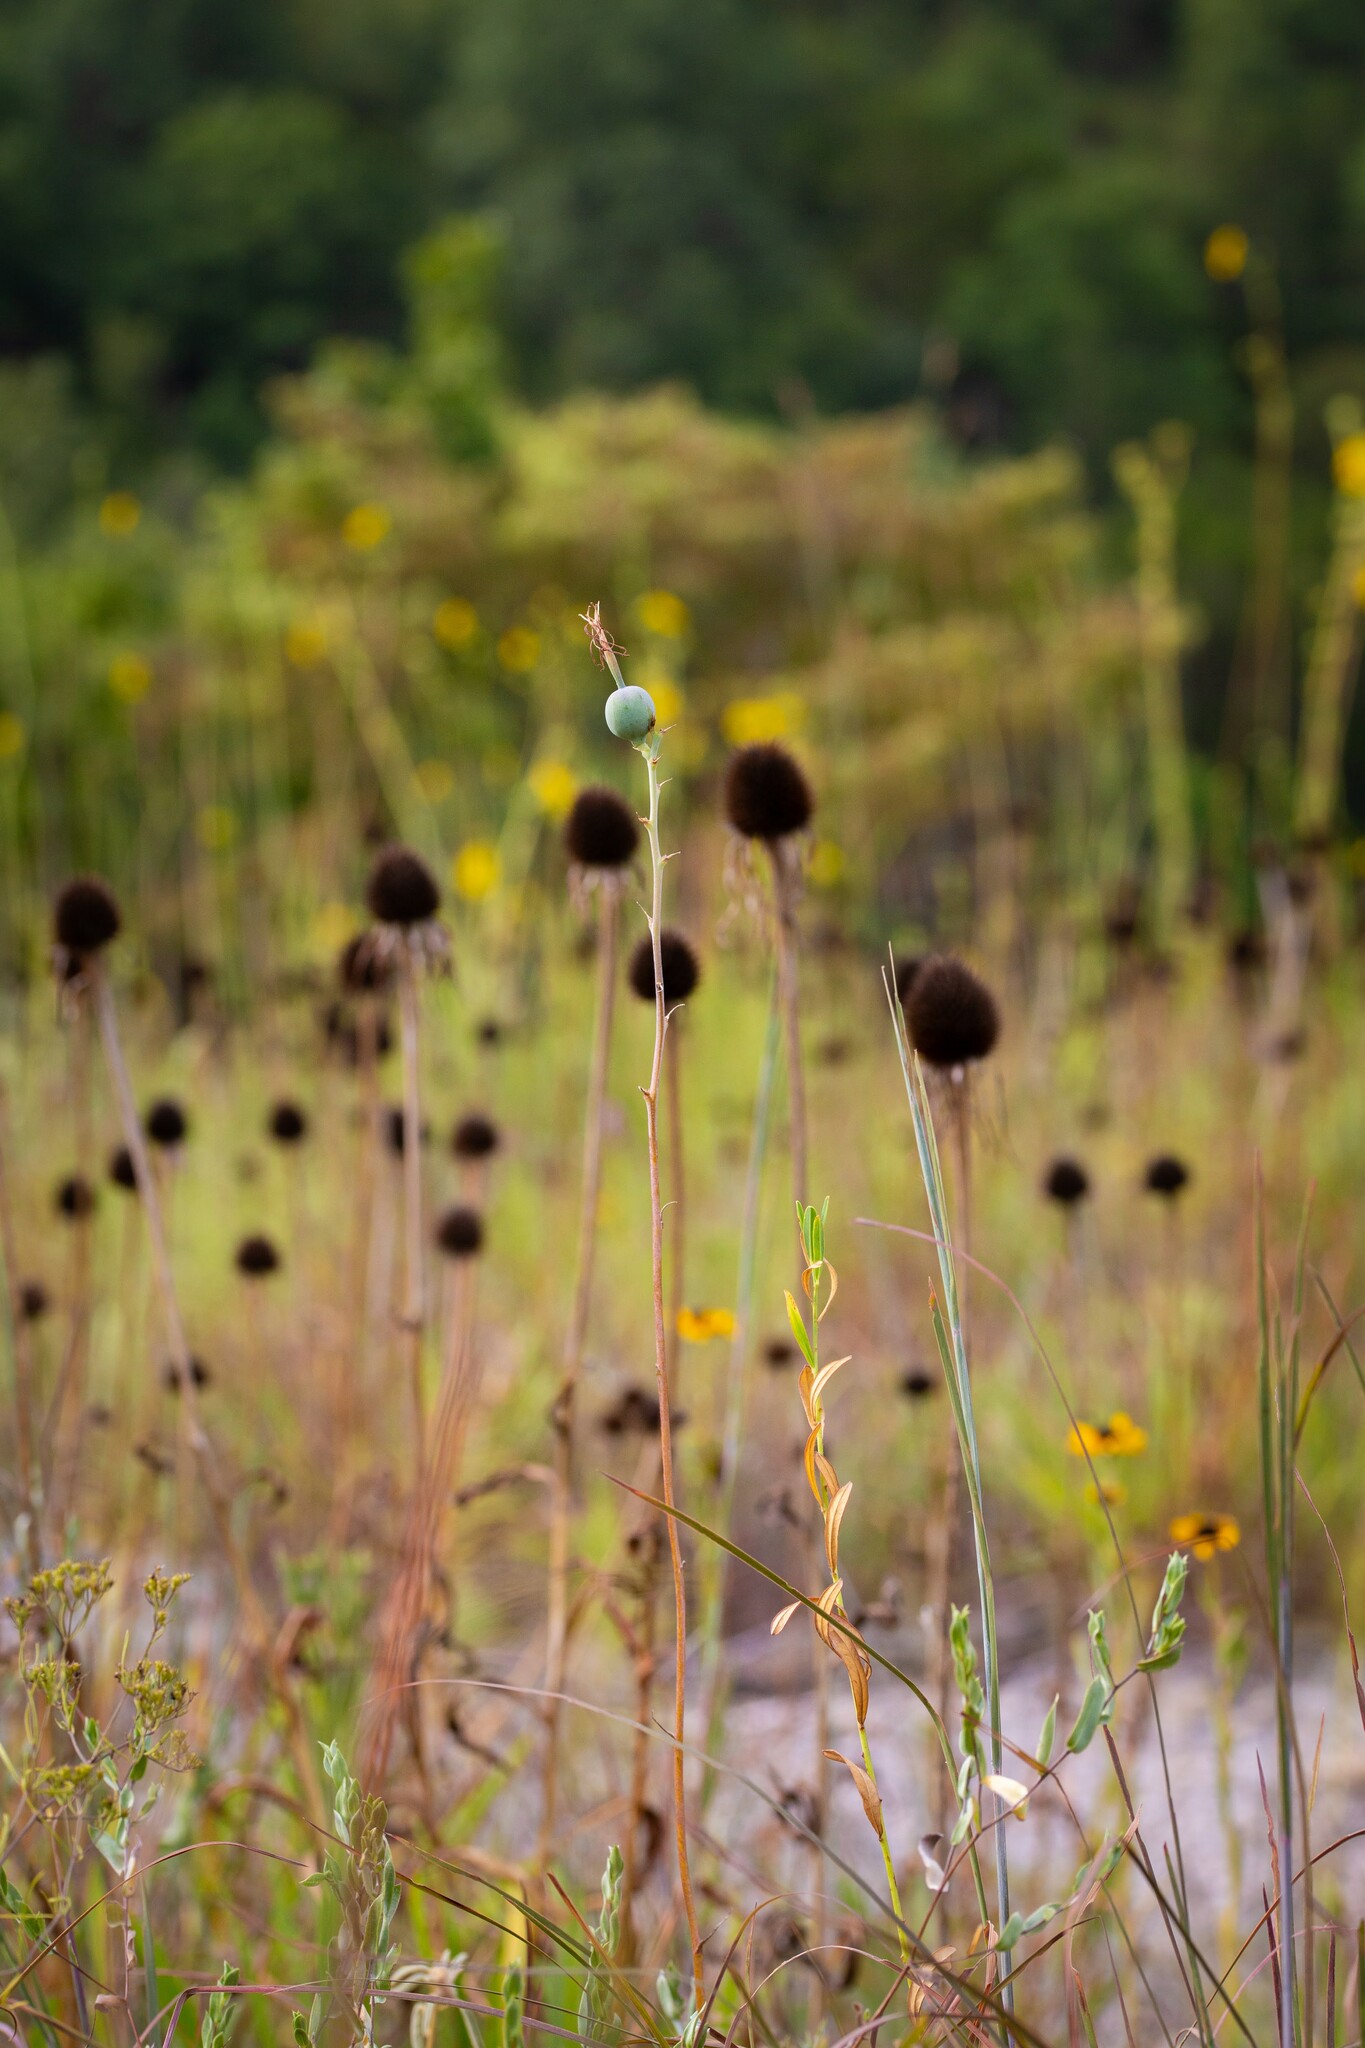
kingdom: Plantae
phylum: Tracheophyta
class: Liliopsida
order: Asparagales
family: Asparagaceae
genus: Agave
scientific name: Agave virginica
